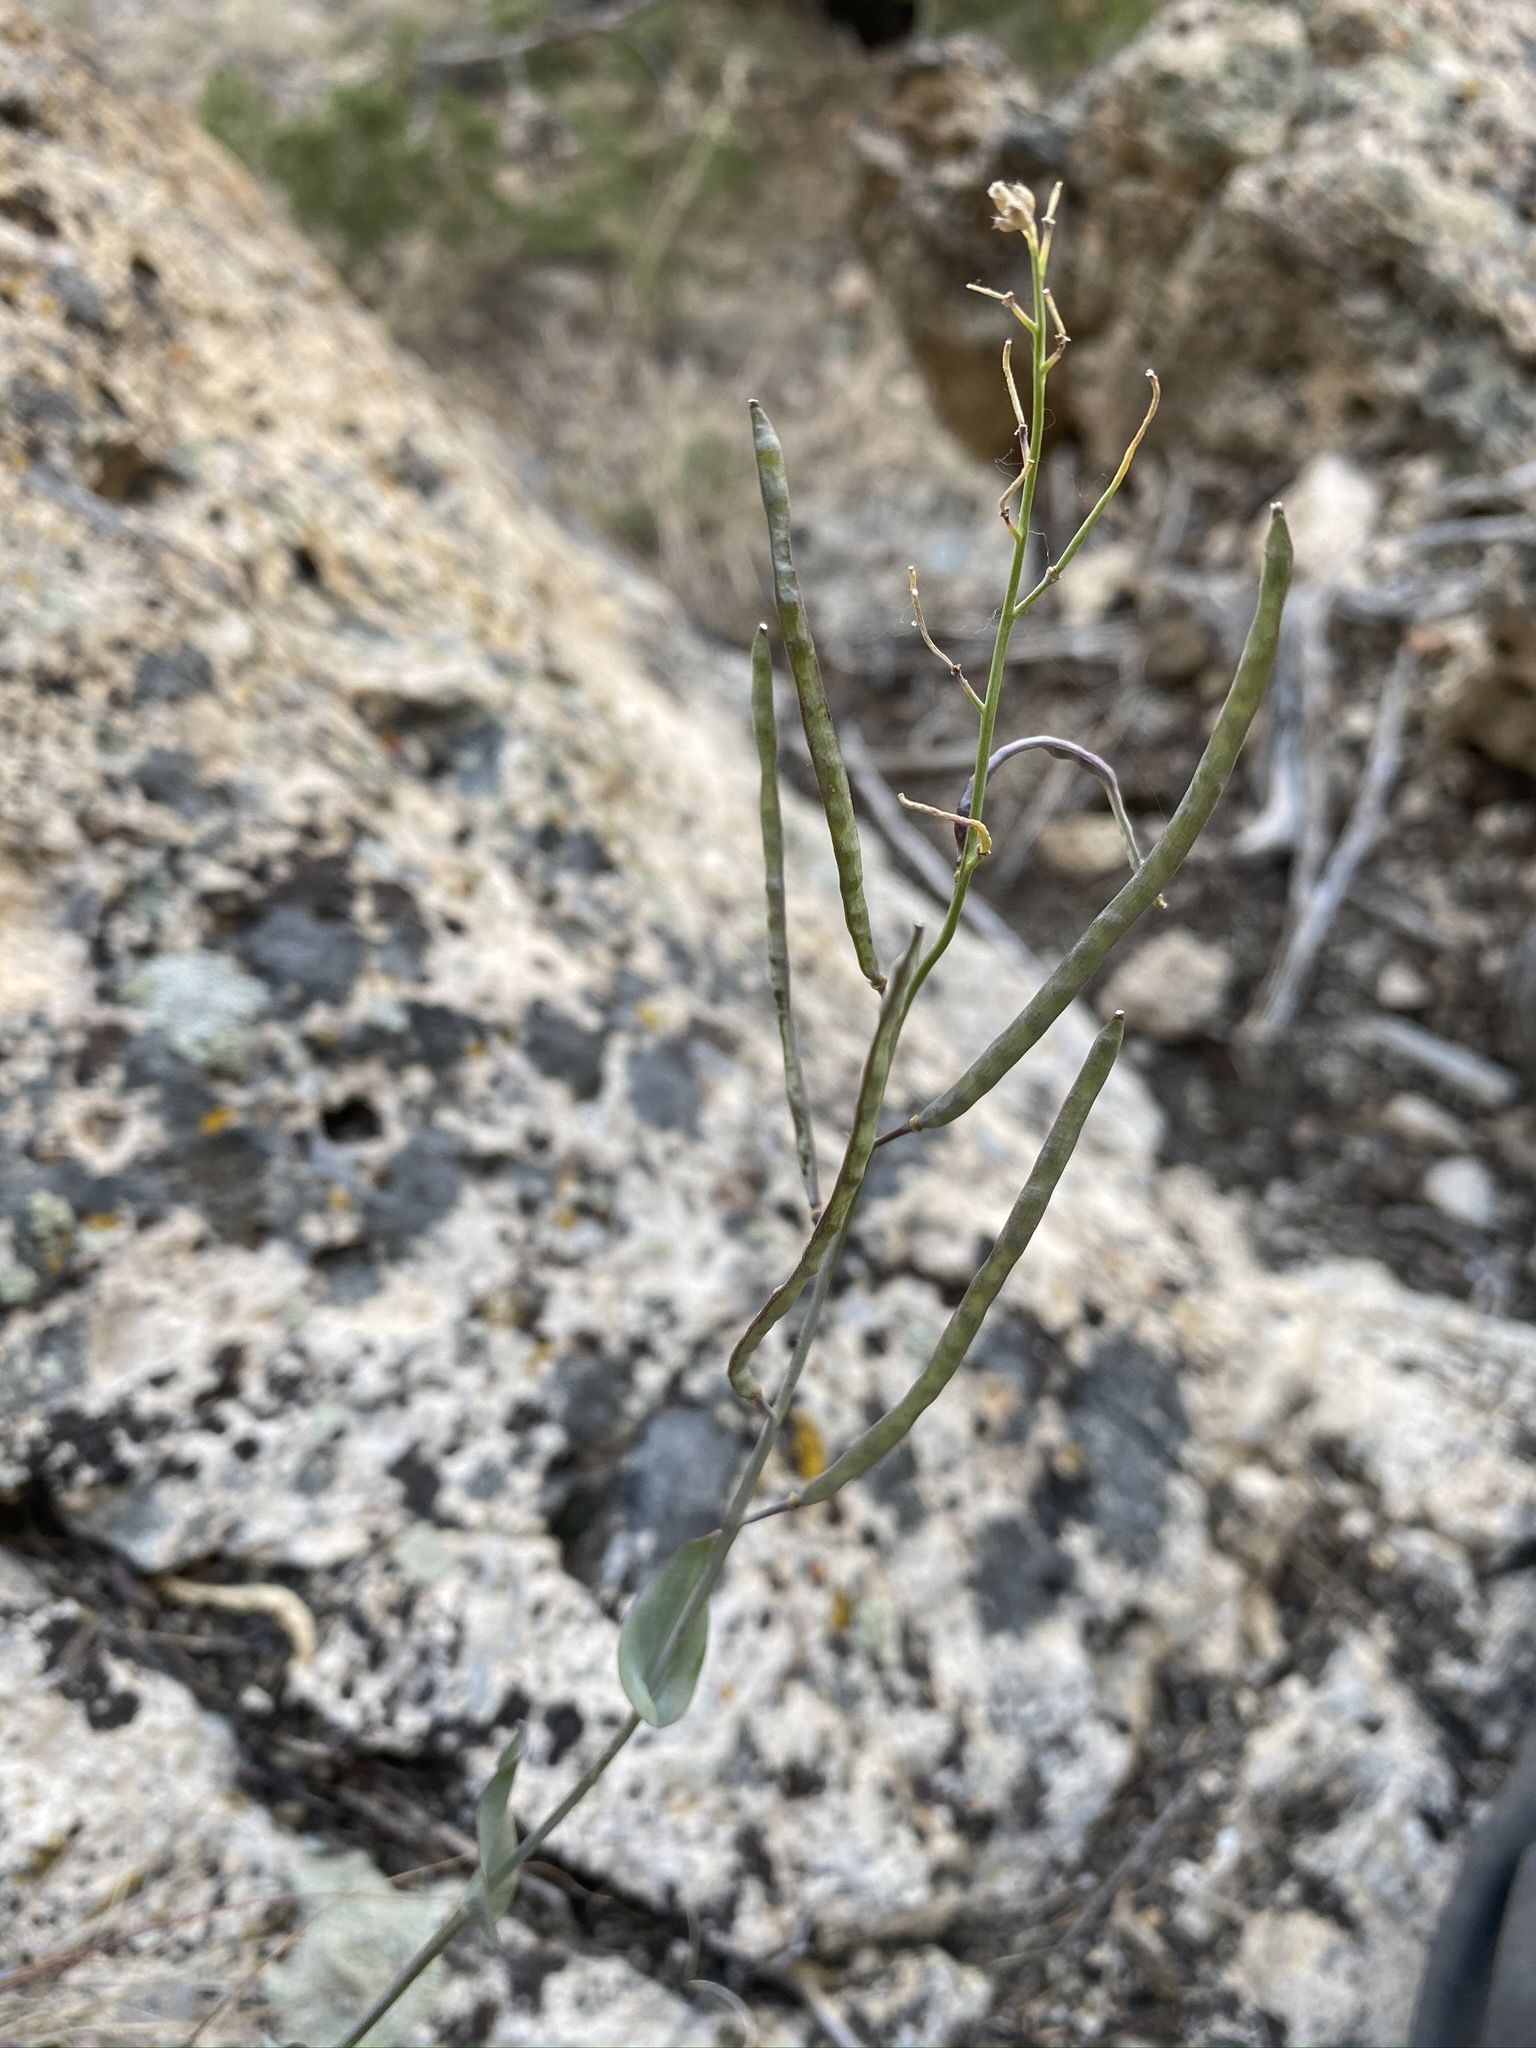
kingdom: Plantae
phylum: Tracheophyta
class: Magnoliopsida
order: Brassicales
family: Brassicaceae
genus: Streptanthus
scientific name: Streptanthus cordatus
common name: Heart-leaf jewel-flower
